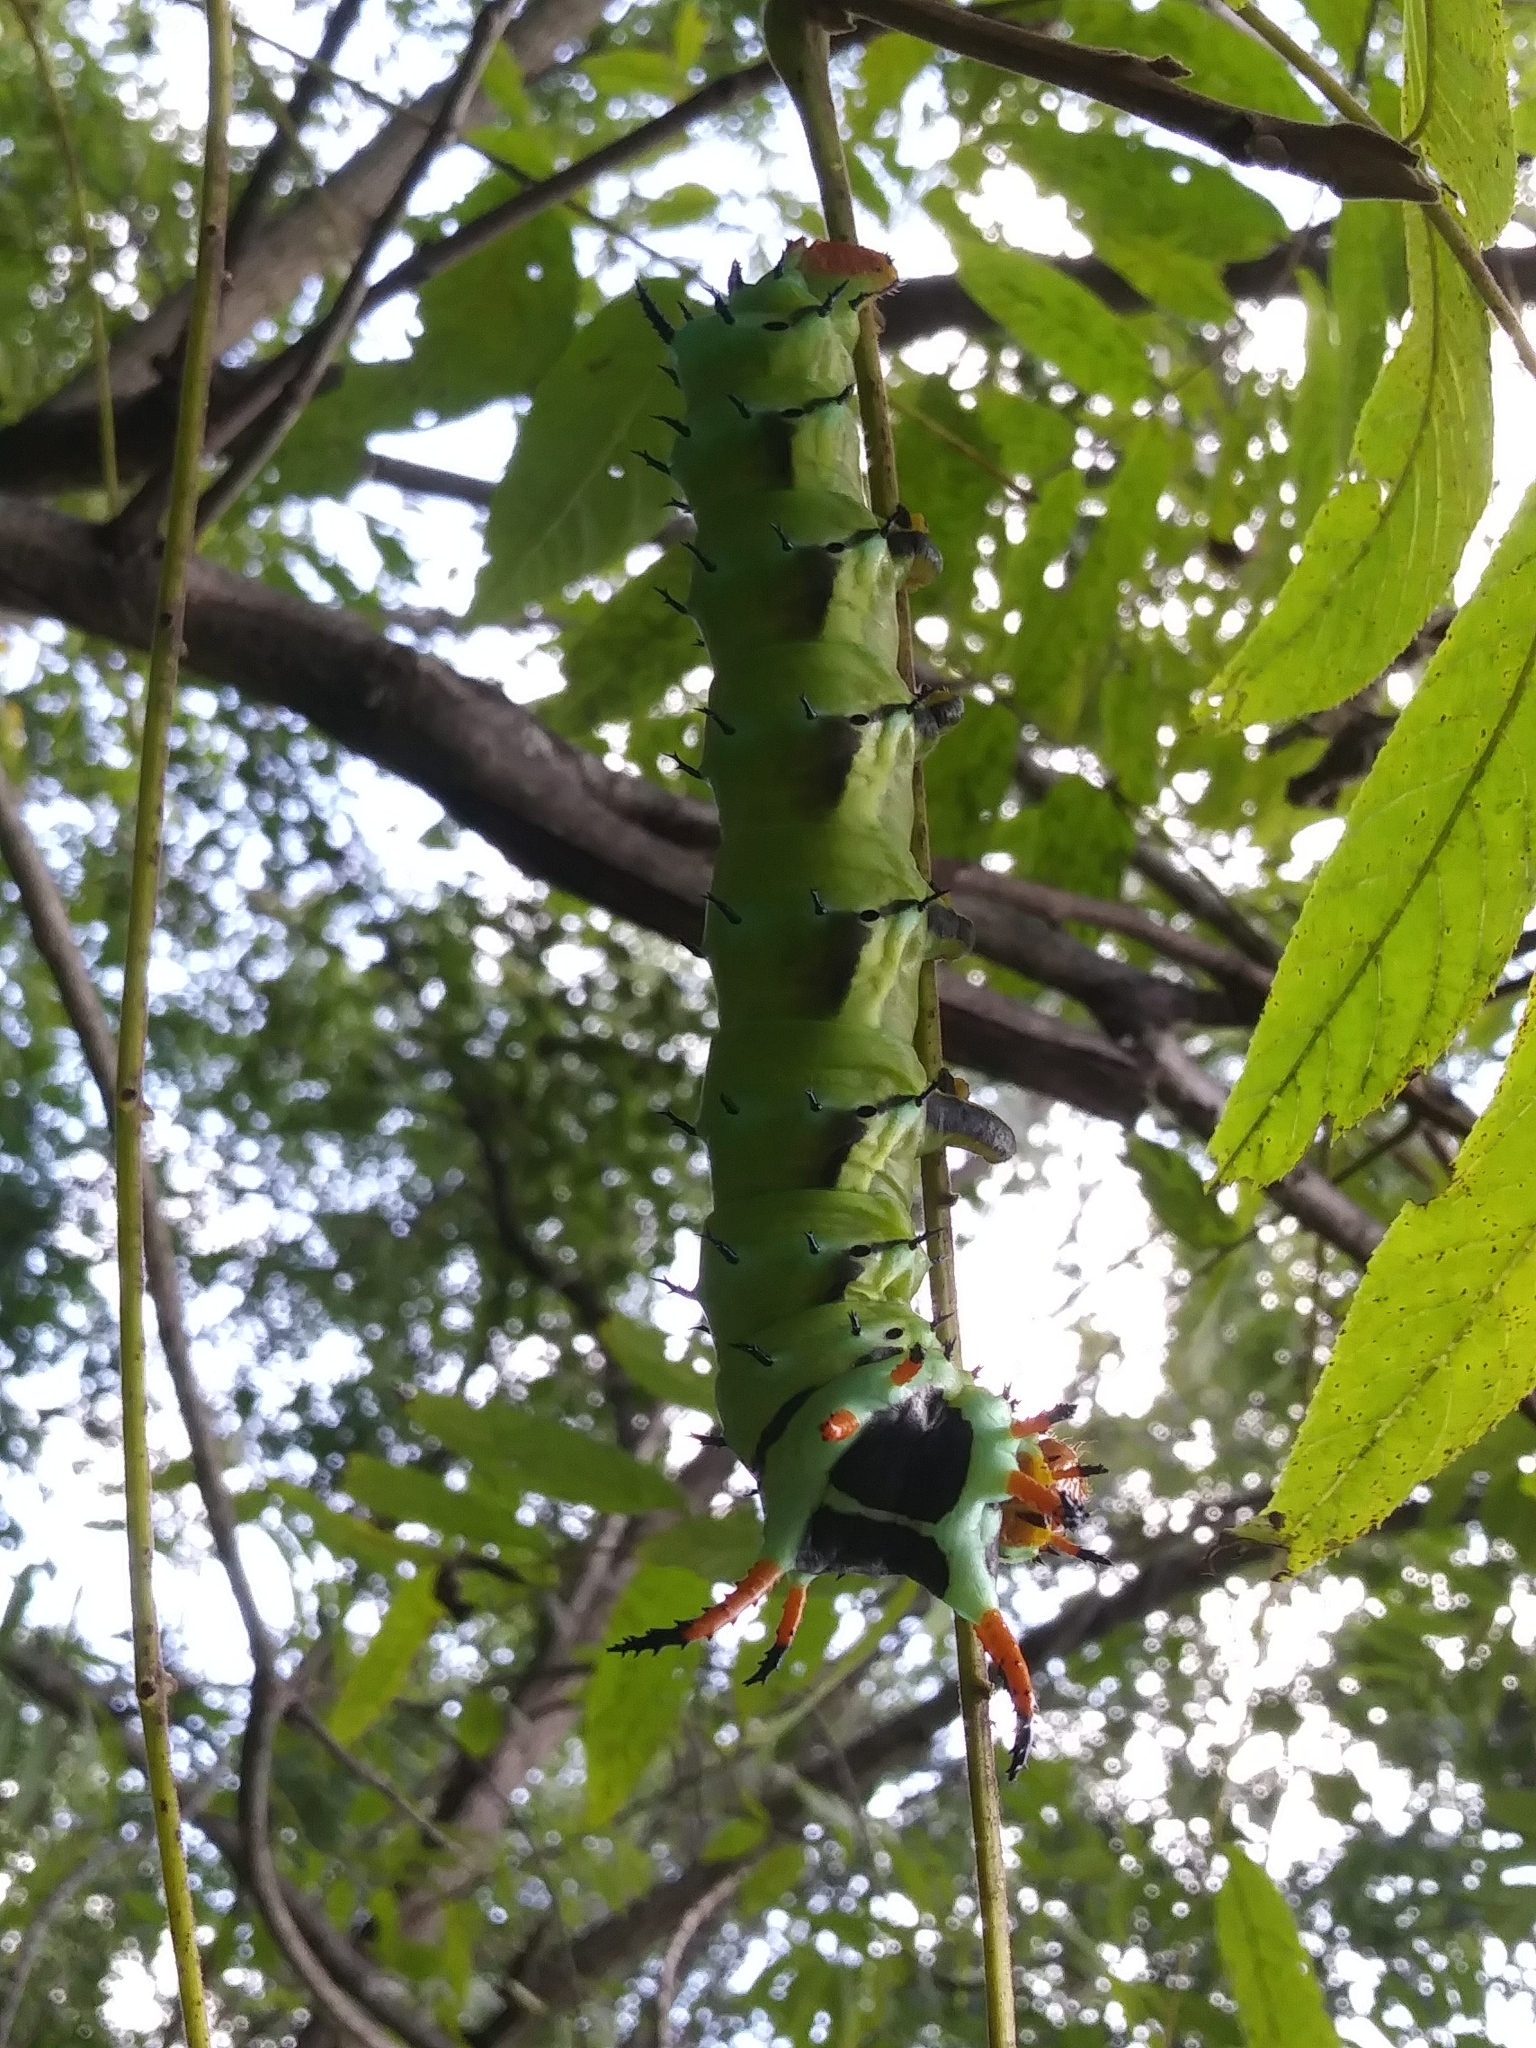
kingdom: Animalia
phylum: Arthropoda
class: Insecta
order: Lepidoptera
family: Saturniidae
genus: Citheronia
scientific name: Citheronia regalis
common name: Hickory horned devil
